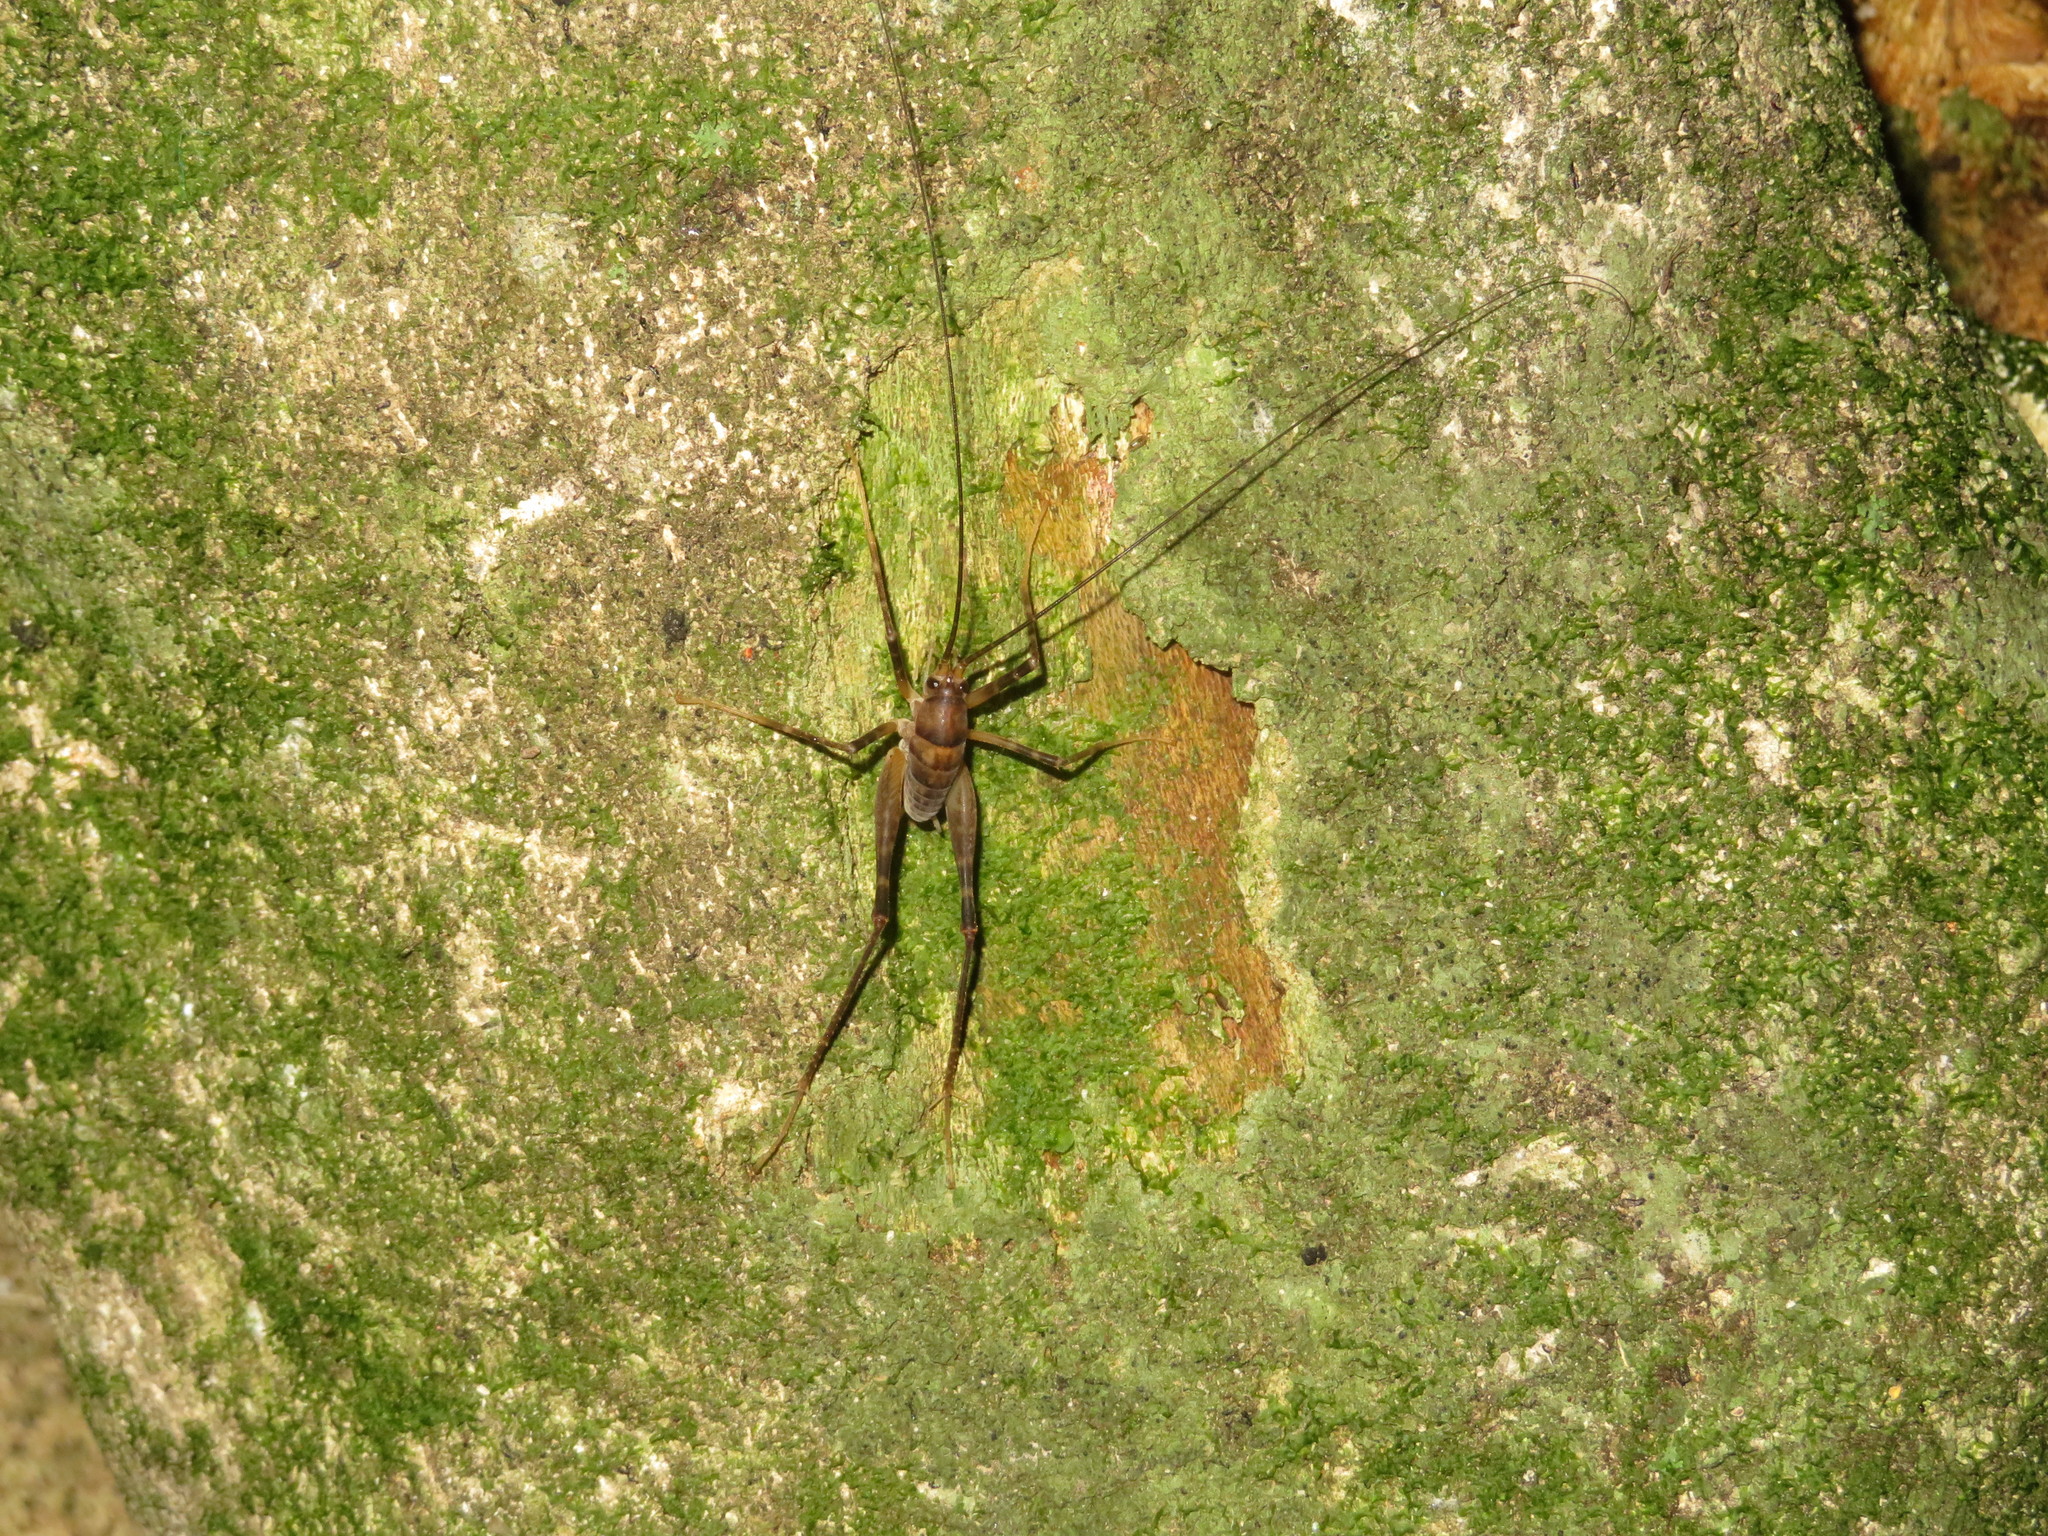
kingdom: Animalia
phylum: Arthropoda
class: Insecta
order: Orthoptera
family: Rhaphidophoridae
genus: Pachyrhamma
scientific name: Pachyrhamma edwardsii
